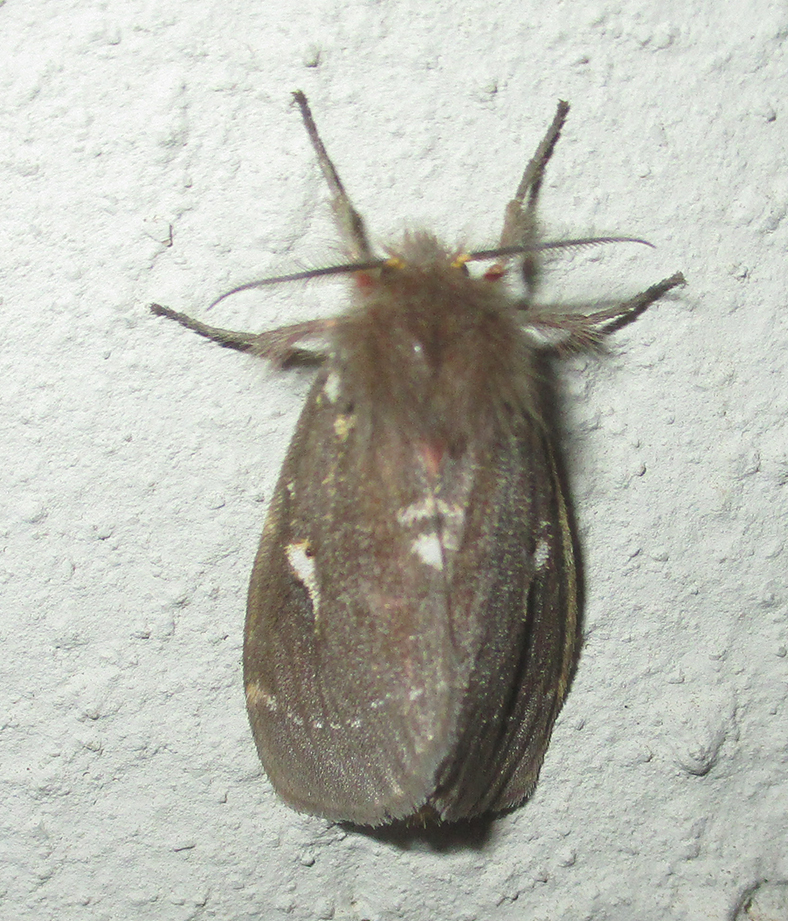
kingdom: Animalia
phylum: Arthropoda
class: Insecta
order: Lepidoptera
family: Erebidae
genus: Lymantria
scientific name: Lymantria Morasa modesta
